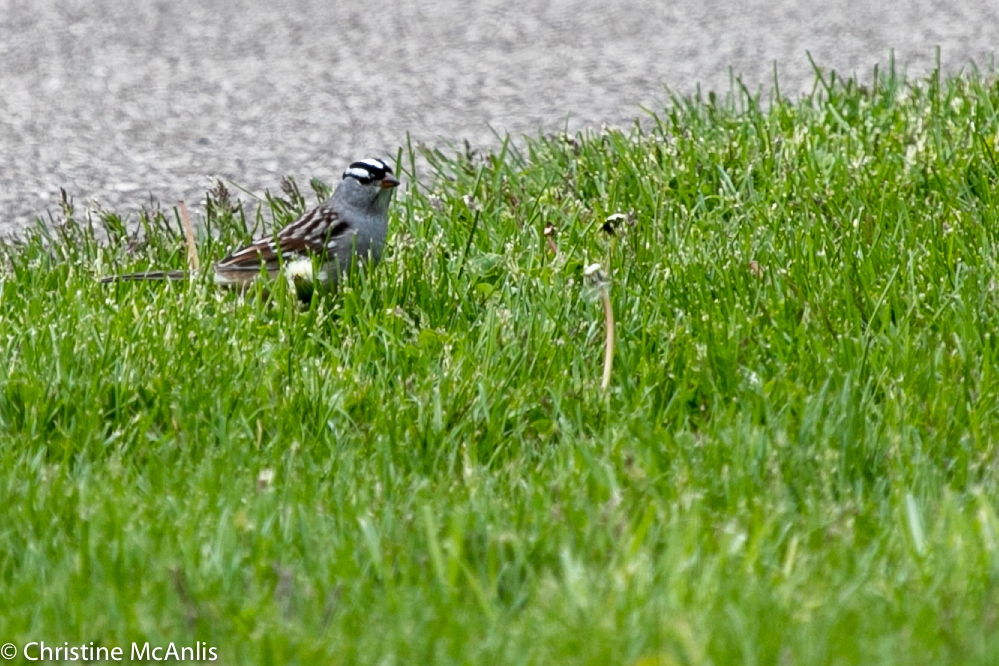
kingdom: Animalia
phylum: Chordata
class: Aves
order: Passeriformes
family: Passerellidae
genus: Zonotrichia
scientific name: Zonotrichia leucophrys
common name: White-crowned sparrow
